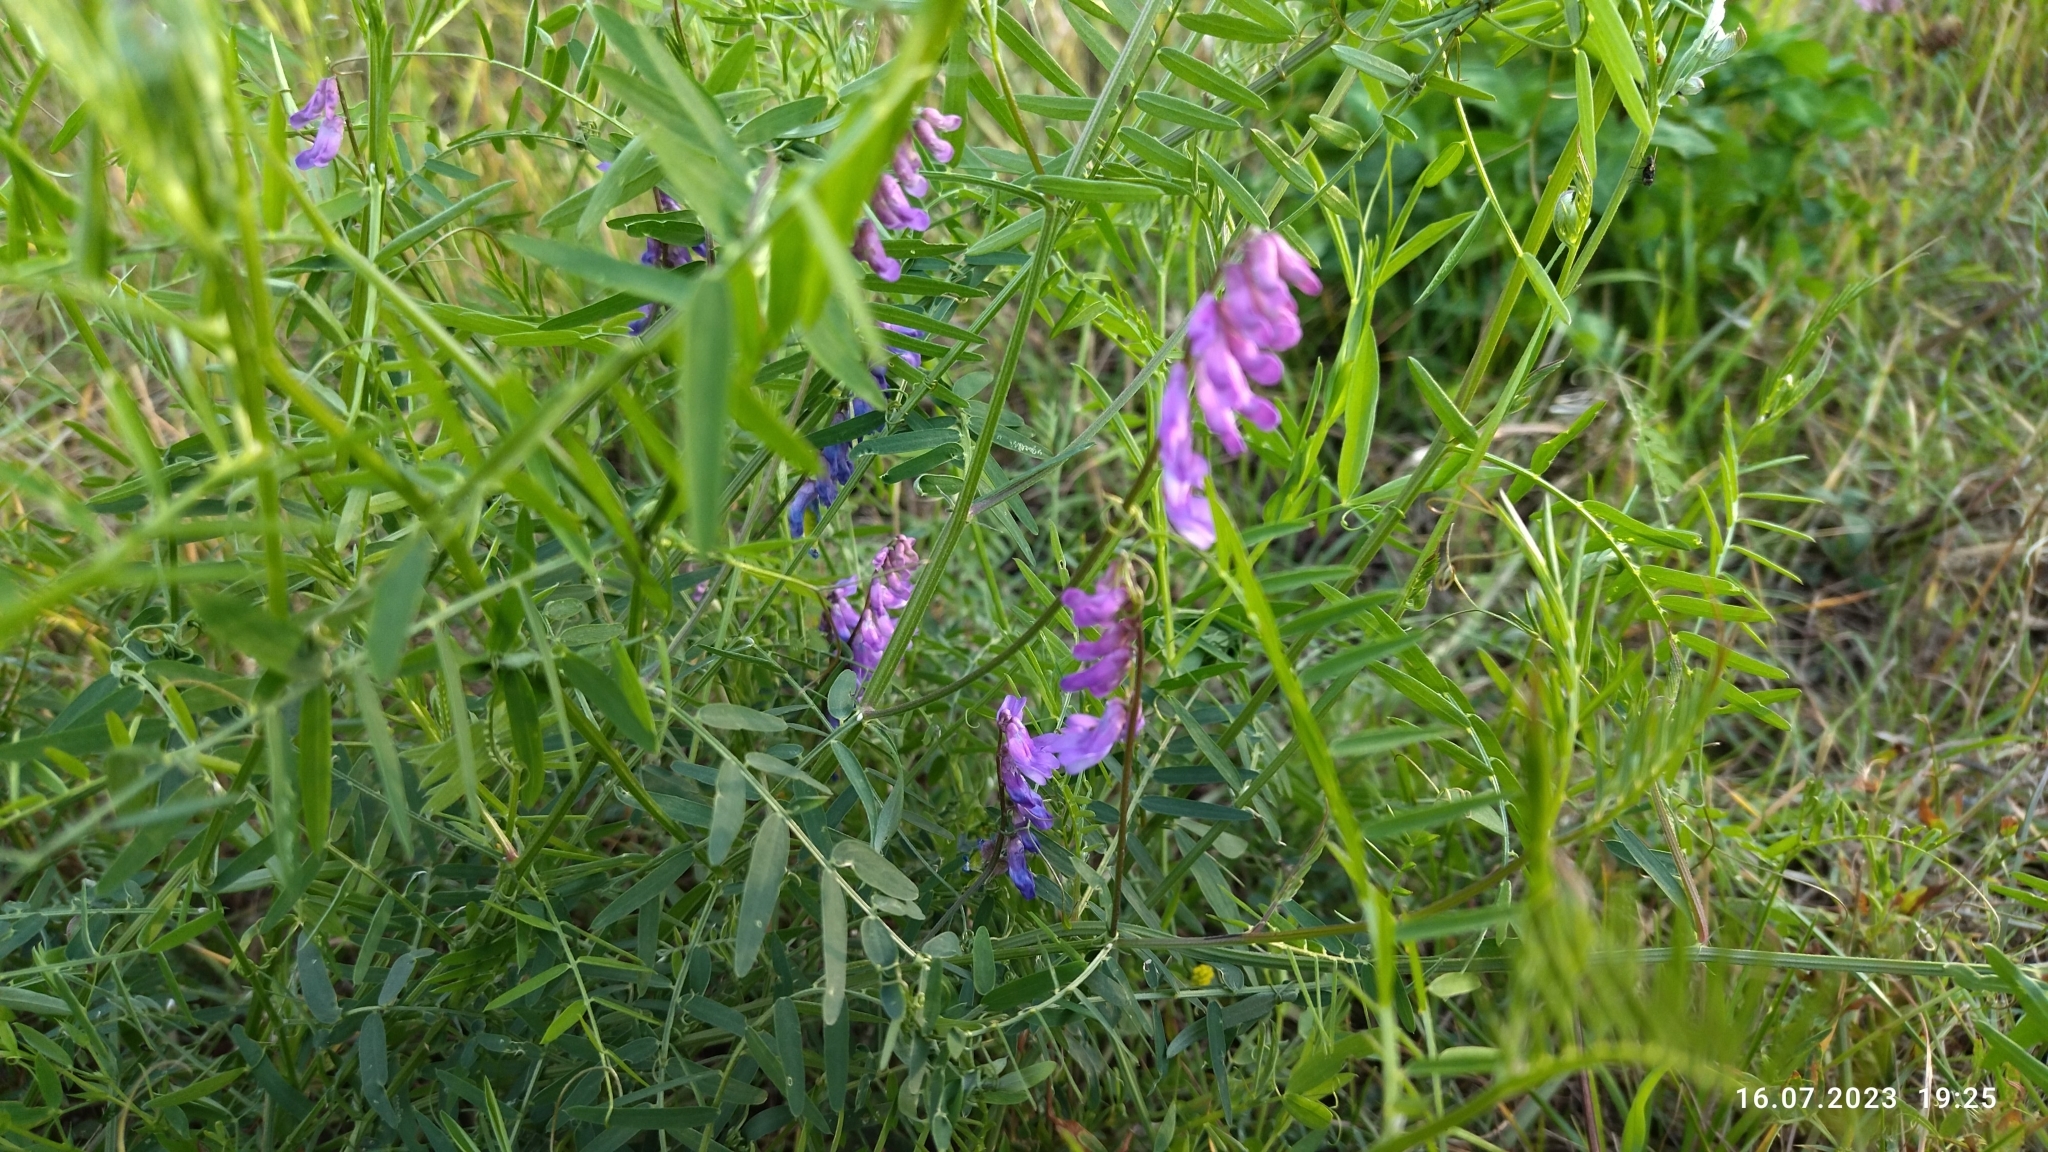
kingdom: Plantae
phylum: Tracheophyta
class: Magnoliopsida
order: Fabales
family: Fabaceae
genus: Vicia
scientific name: Vicia cracca
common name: Bird vetch
